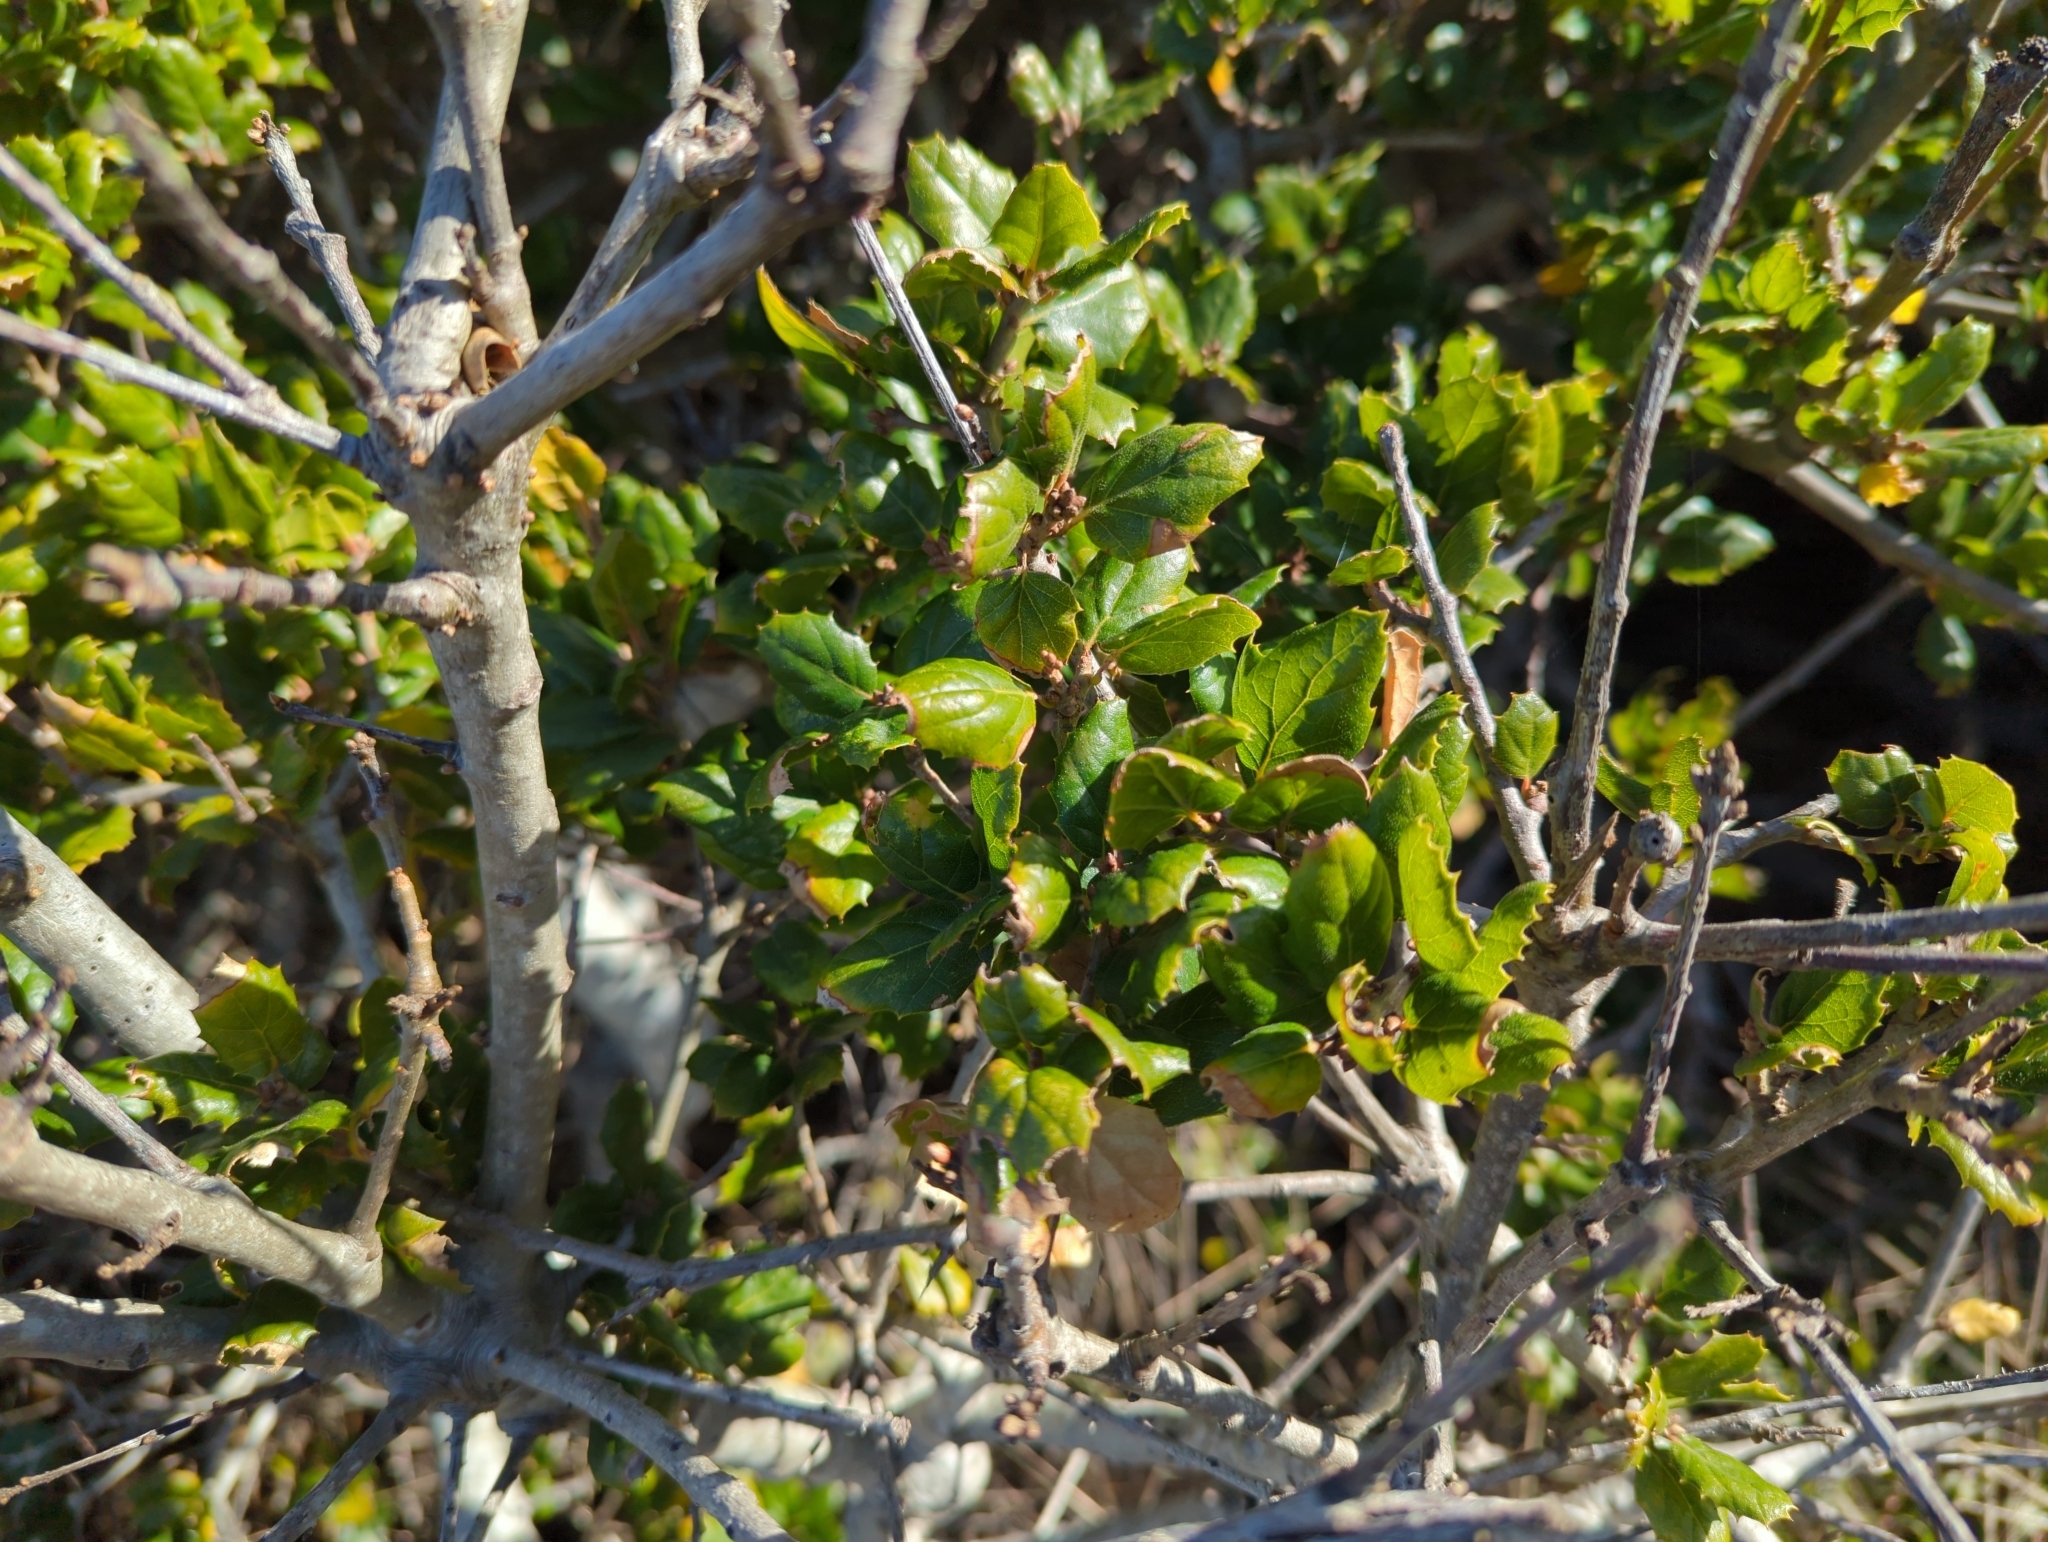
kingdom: Plantae
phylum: Tracheophyta
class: Magnoliopsida
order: Fagales
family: Fagaceae
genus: Quercus
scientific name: Quercus agrifolia
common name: California live oak
